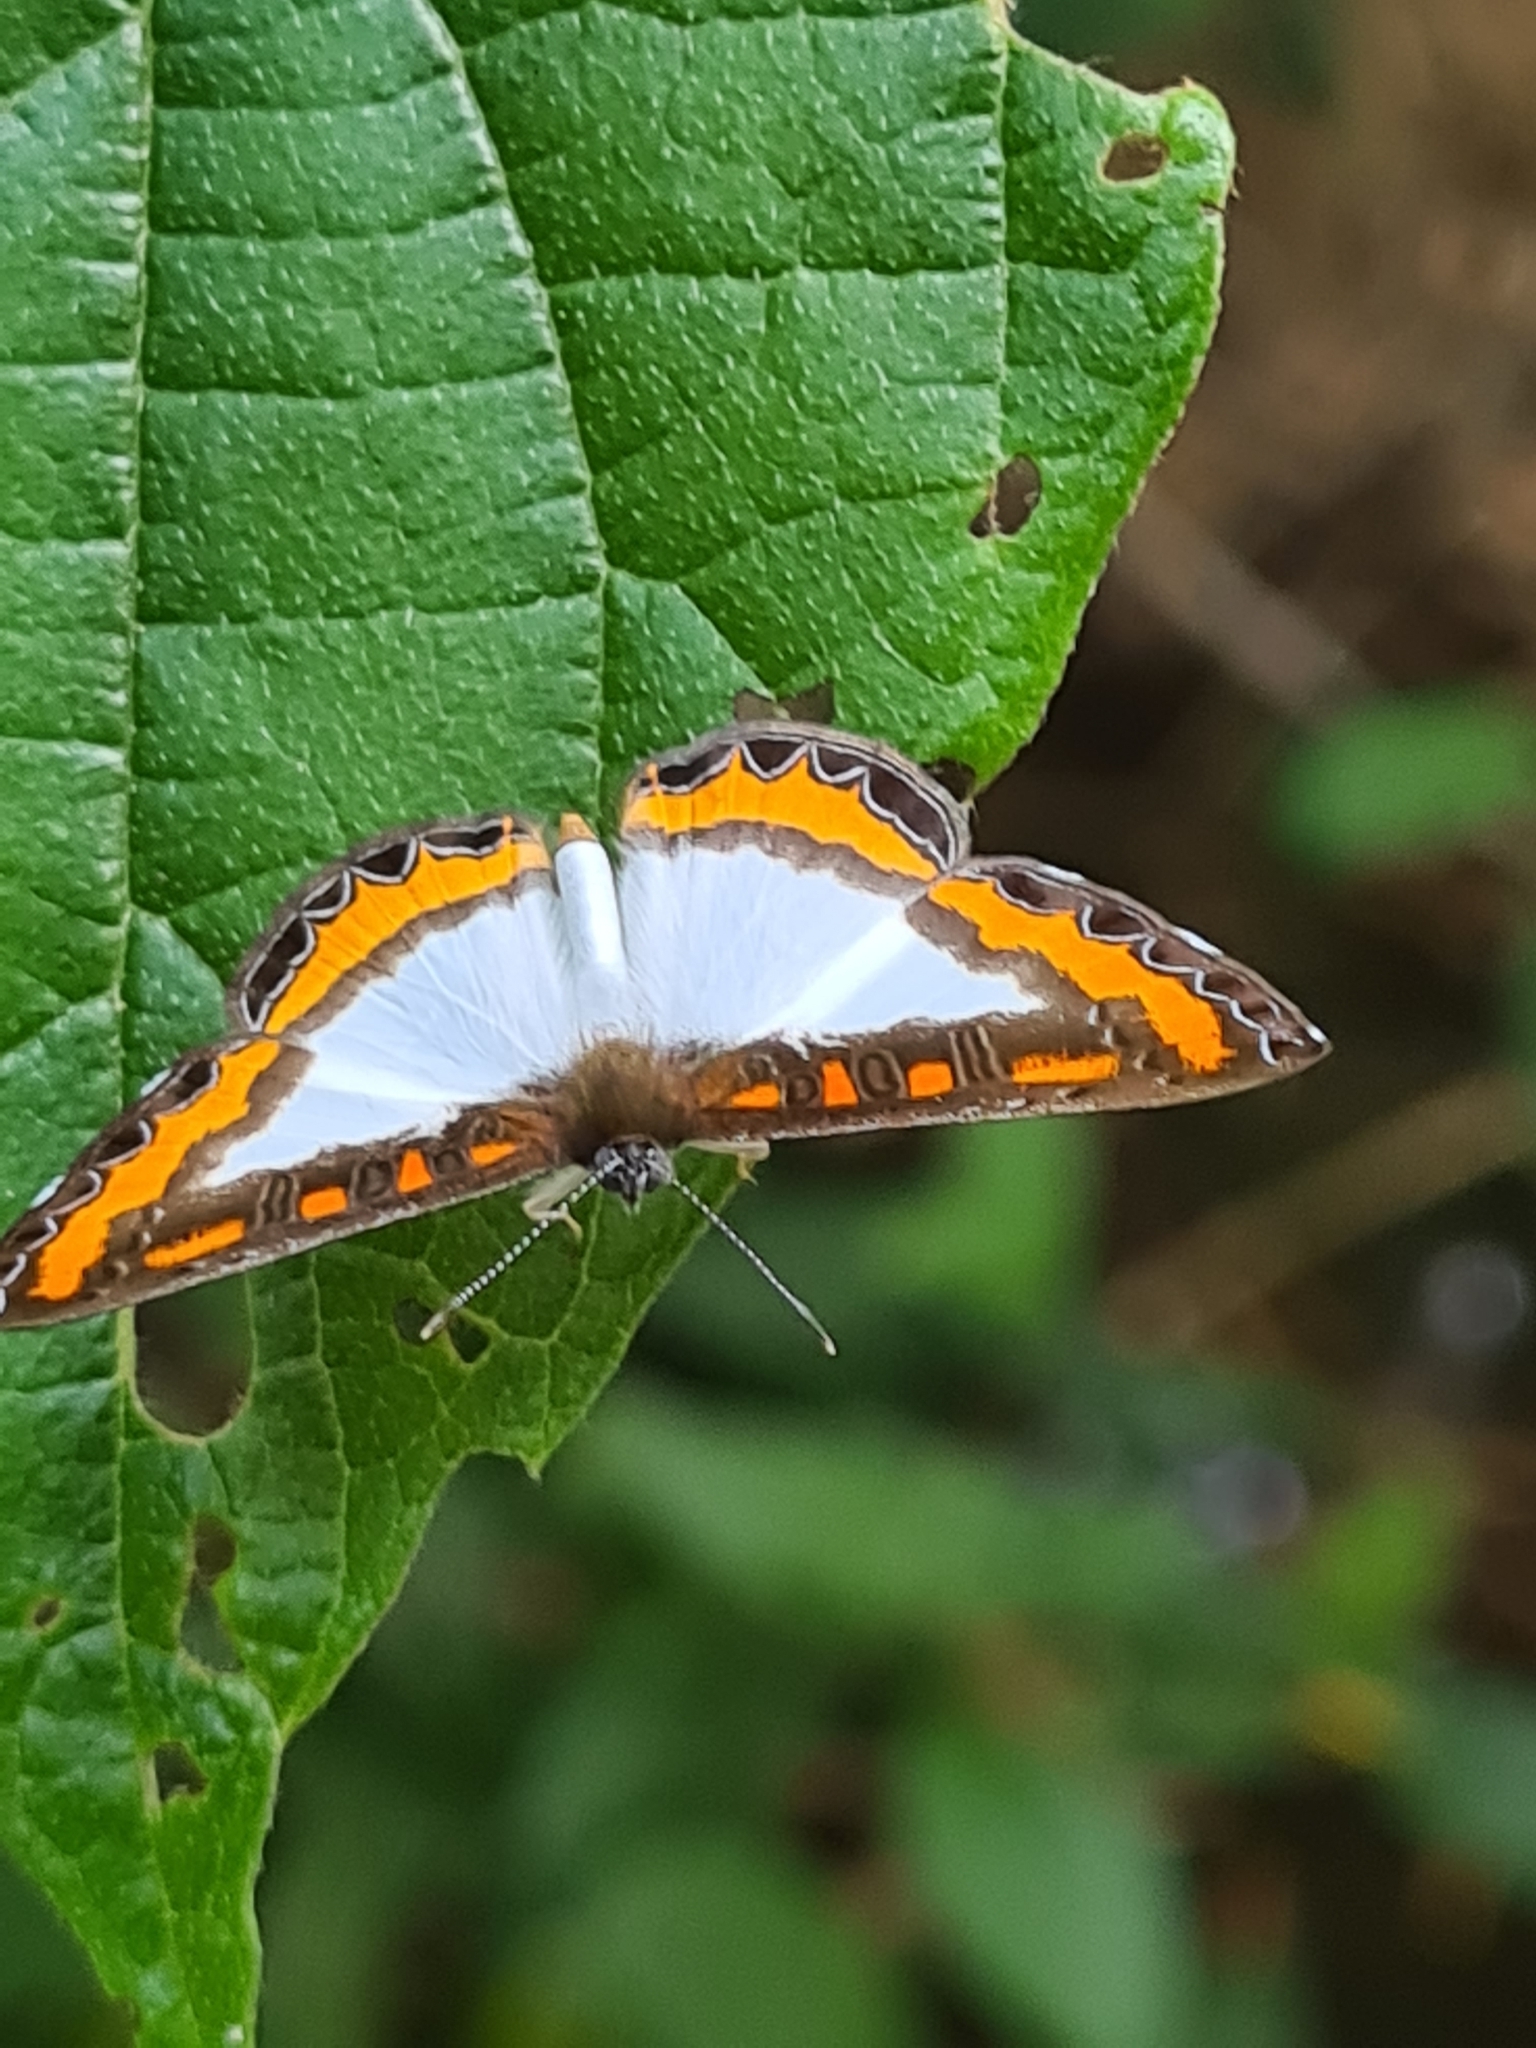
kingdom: Animalia
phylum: Arthropoda
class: Insecta
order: Lepidoptera
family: Riodinidae
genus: Nymula
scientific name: Nymula calyce
